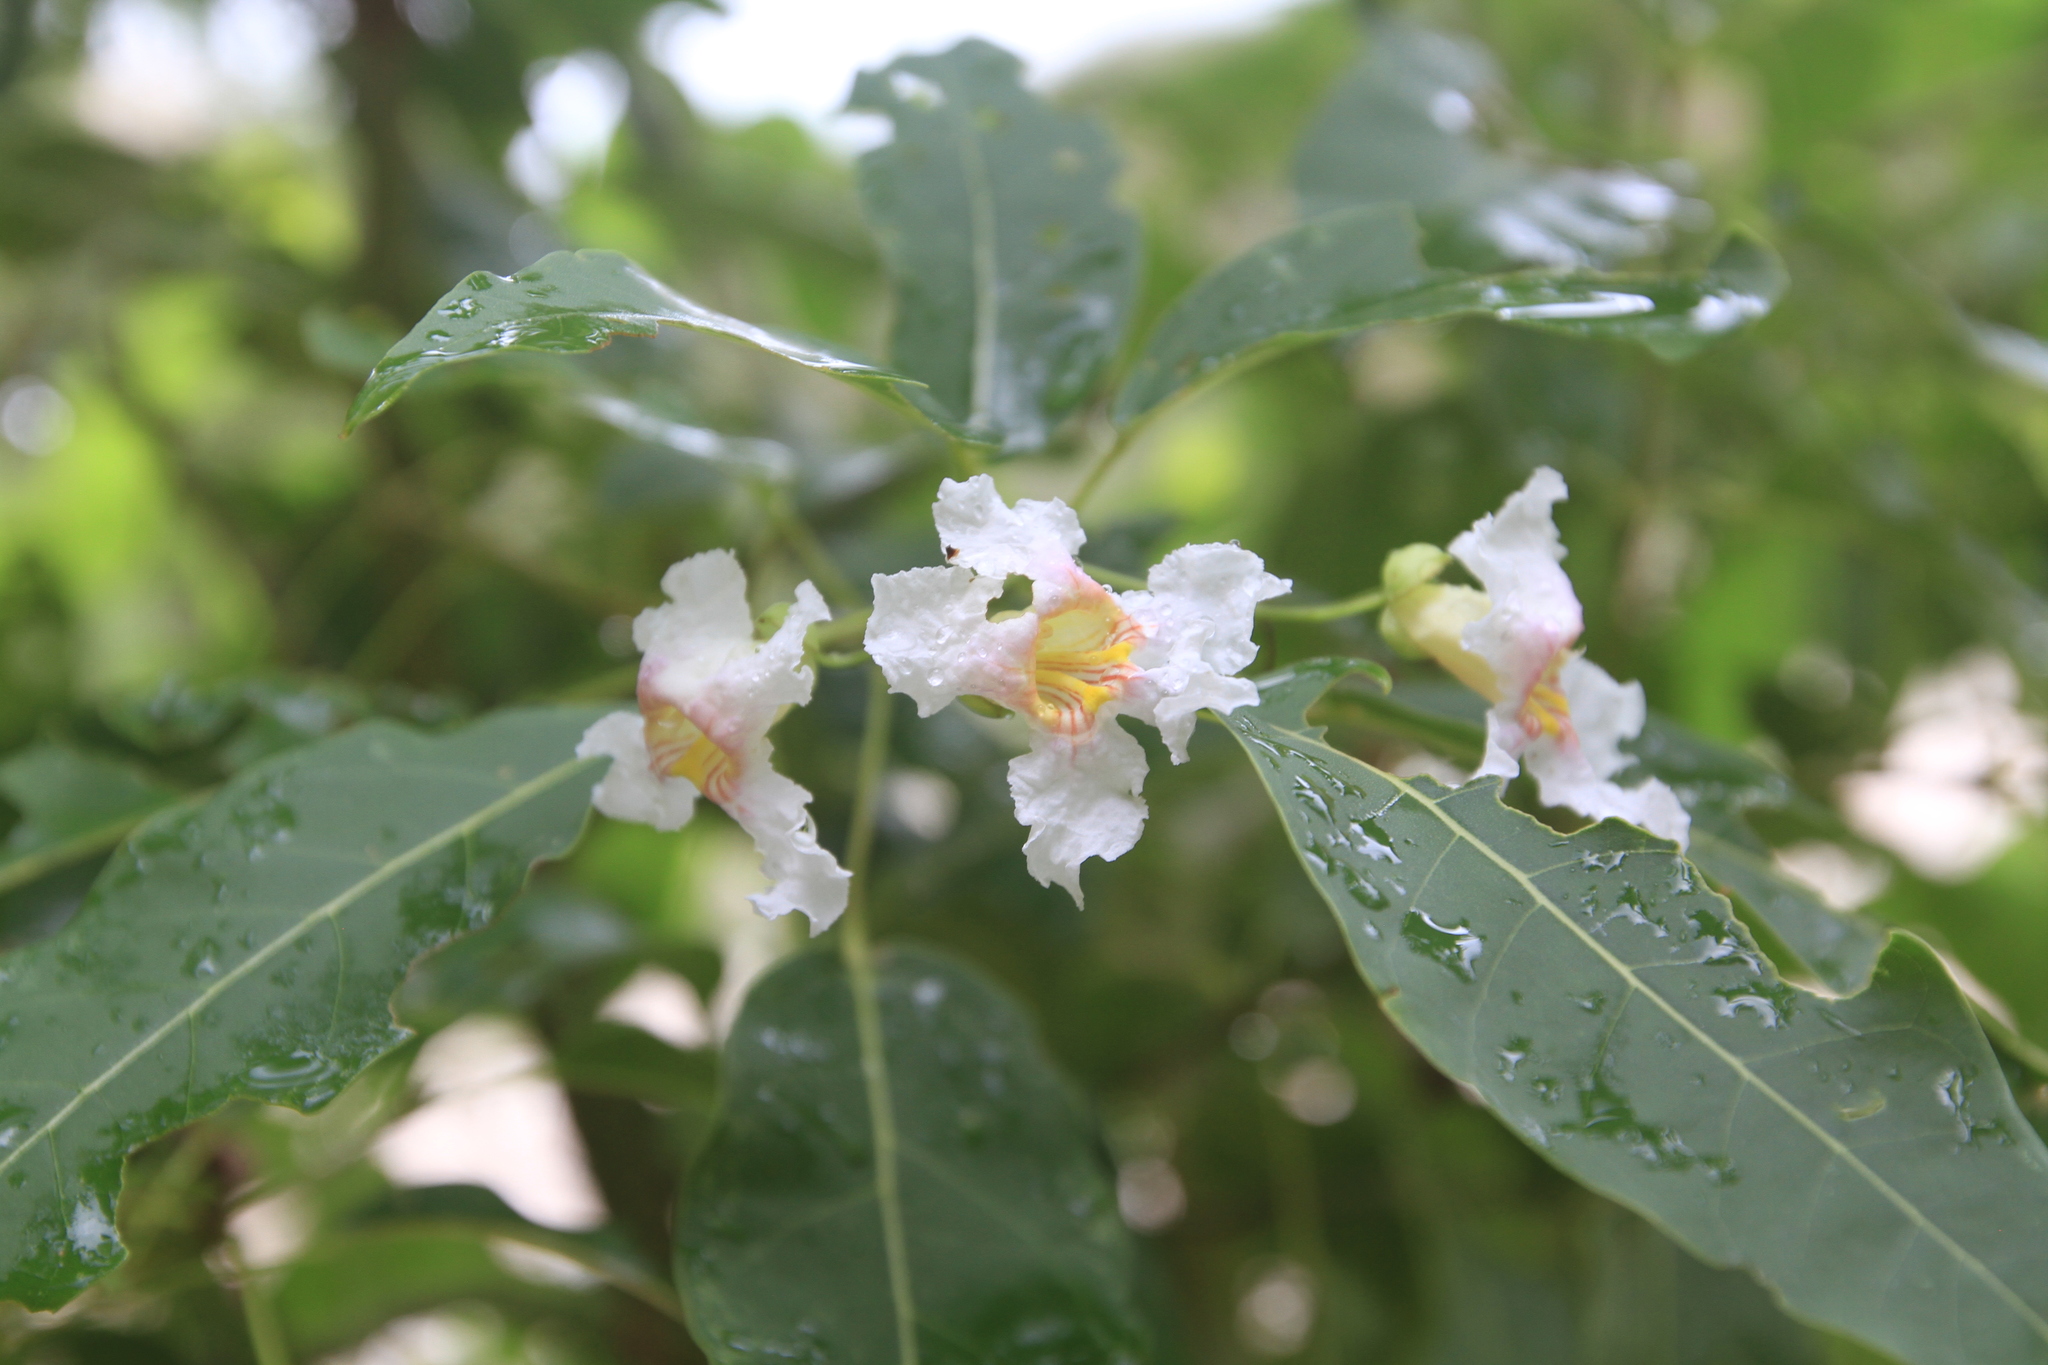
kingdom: Plantae
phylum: Tracheophyta
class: Magnoliopsida
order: Lamiales
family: Bignoniaceae
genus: Catalpa
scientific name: Catalpa longissima
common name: Haitian catalpa
